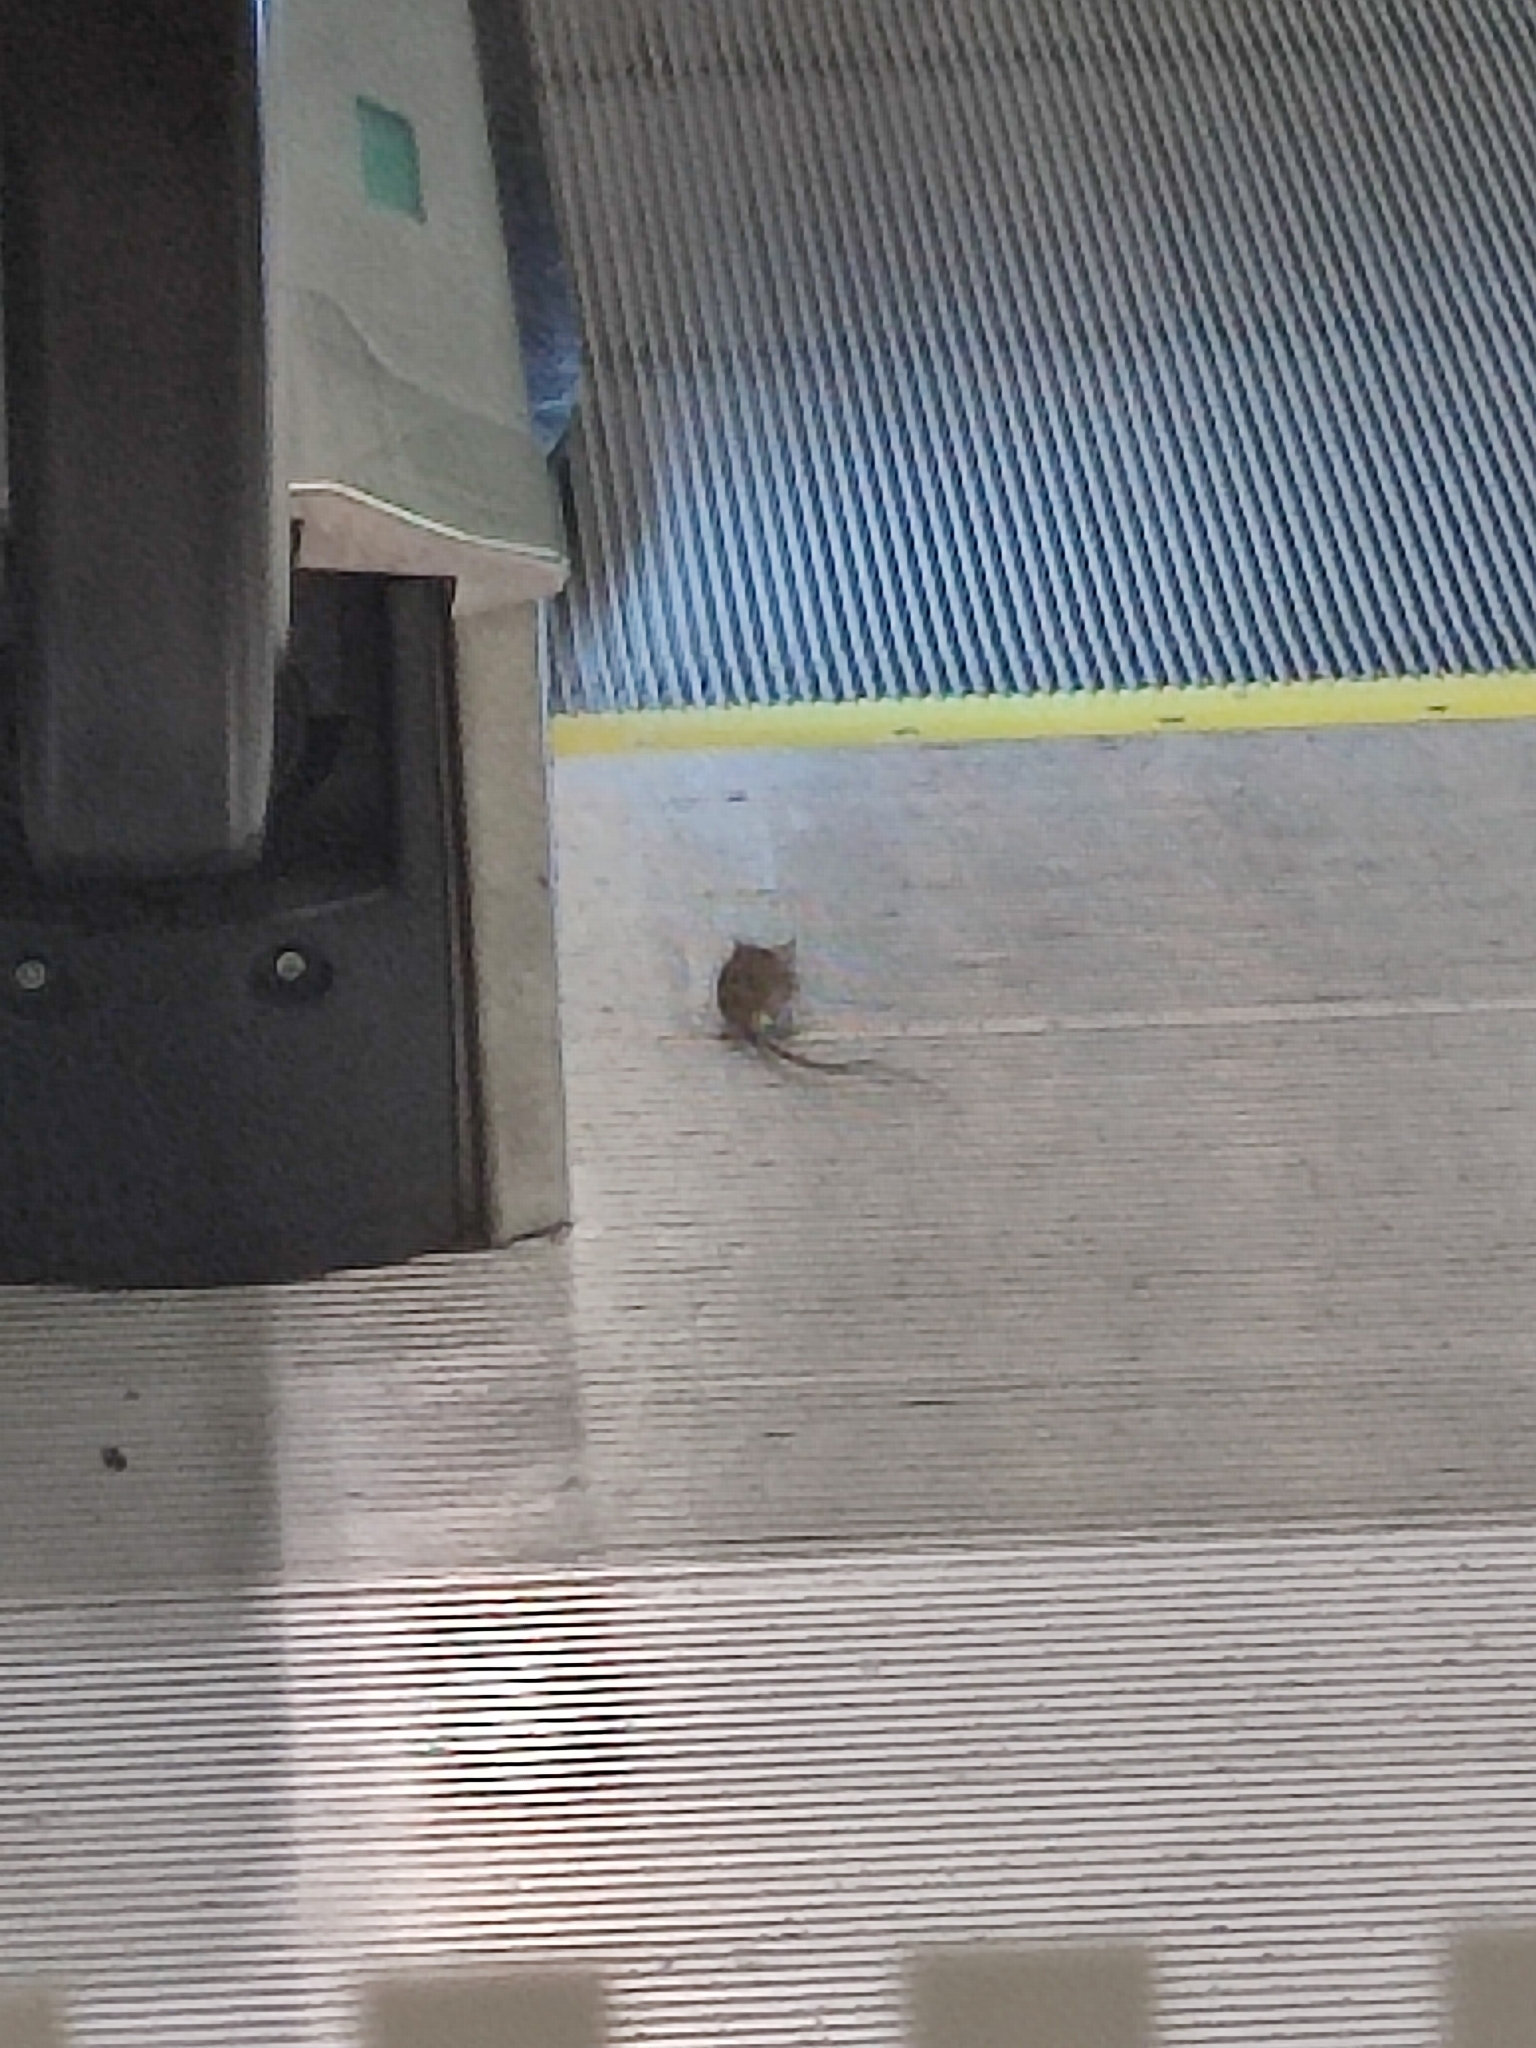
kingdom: Animalia
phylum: Chordata
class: Mammalia
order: Rodentia
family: Muridae
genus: Mus
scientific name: Mus musculus
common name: House mouse
